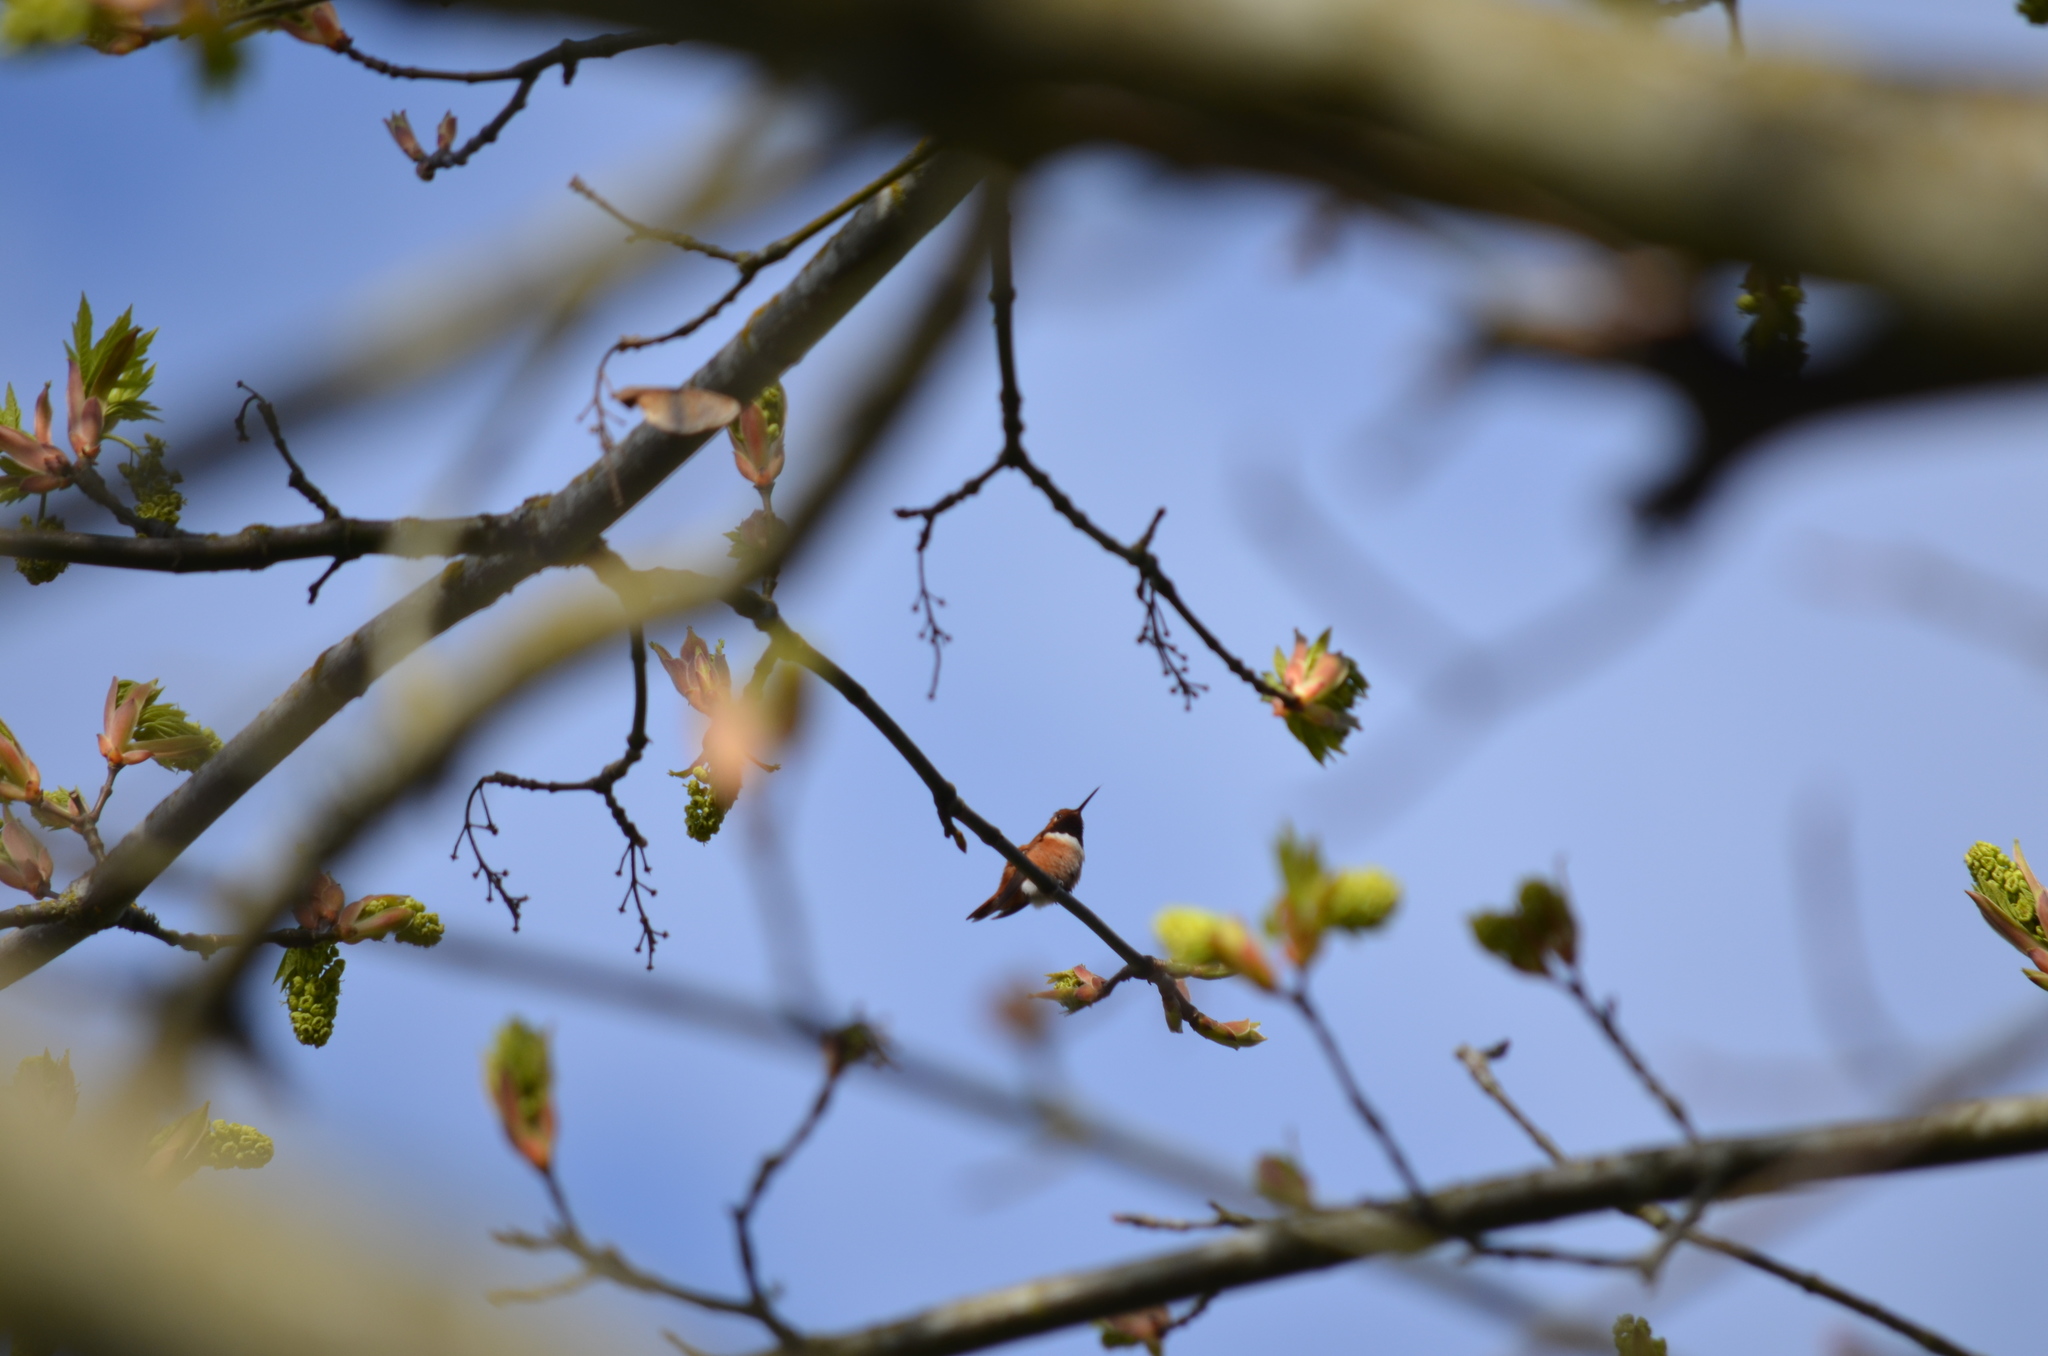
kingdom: Animalia
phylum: Chordata
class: Aves
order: Apodiformes
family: Trochilidae
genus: Selasphorus
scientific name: Selasphorus rufus
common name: Rufous hummingbird
